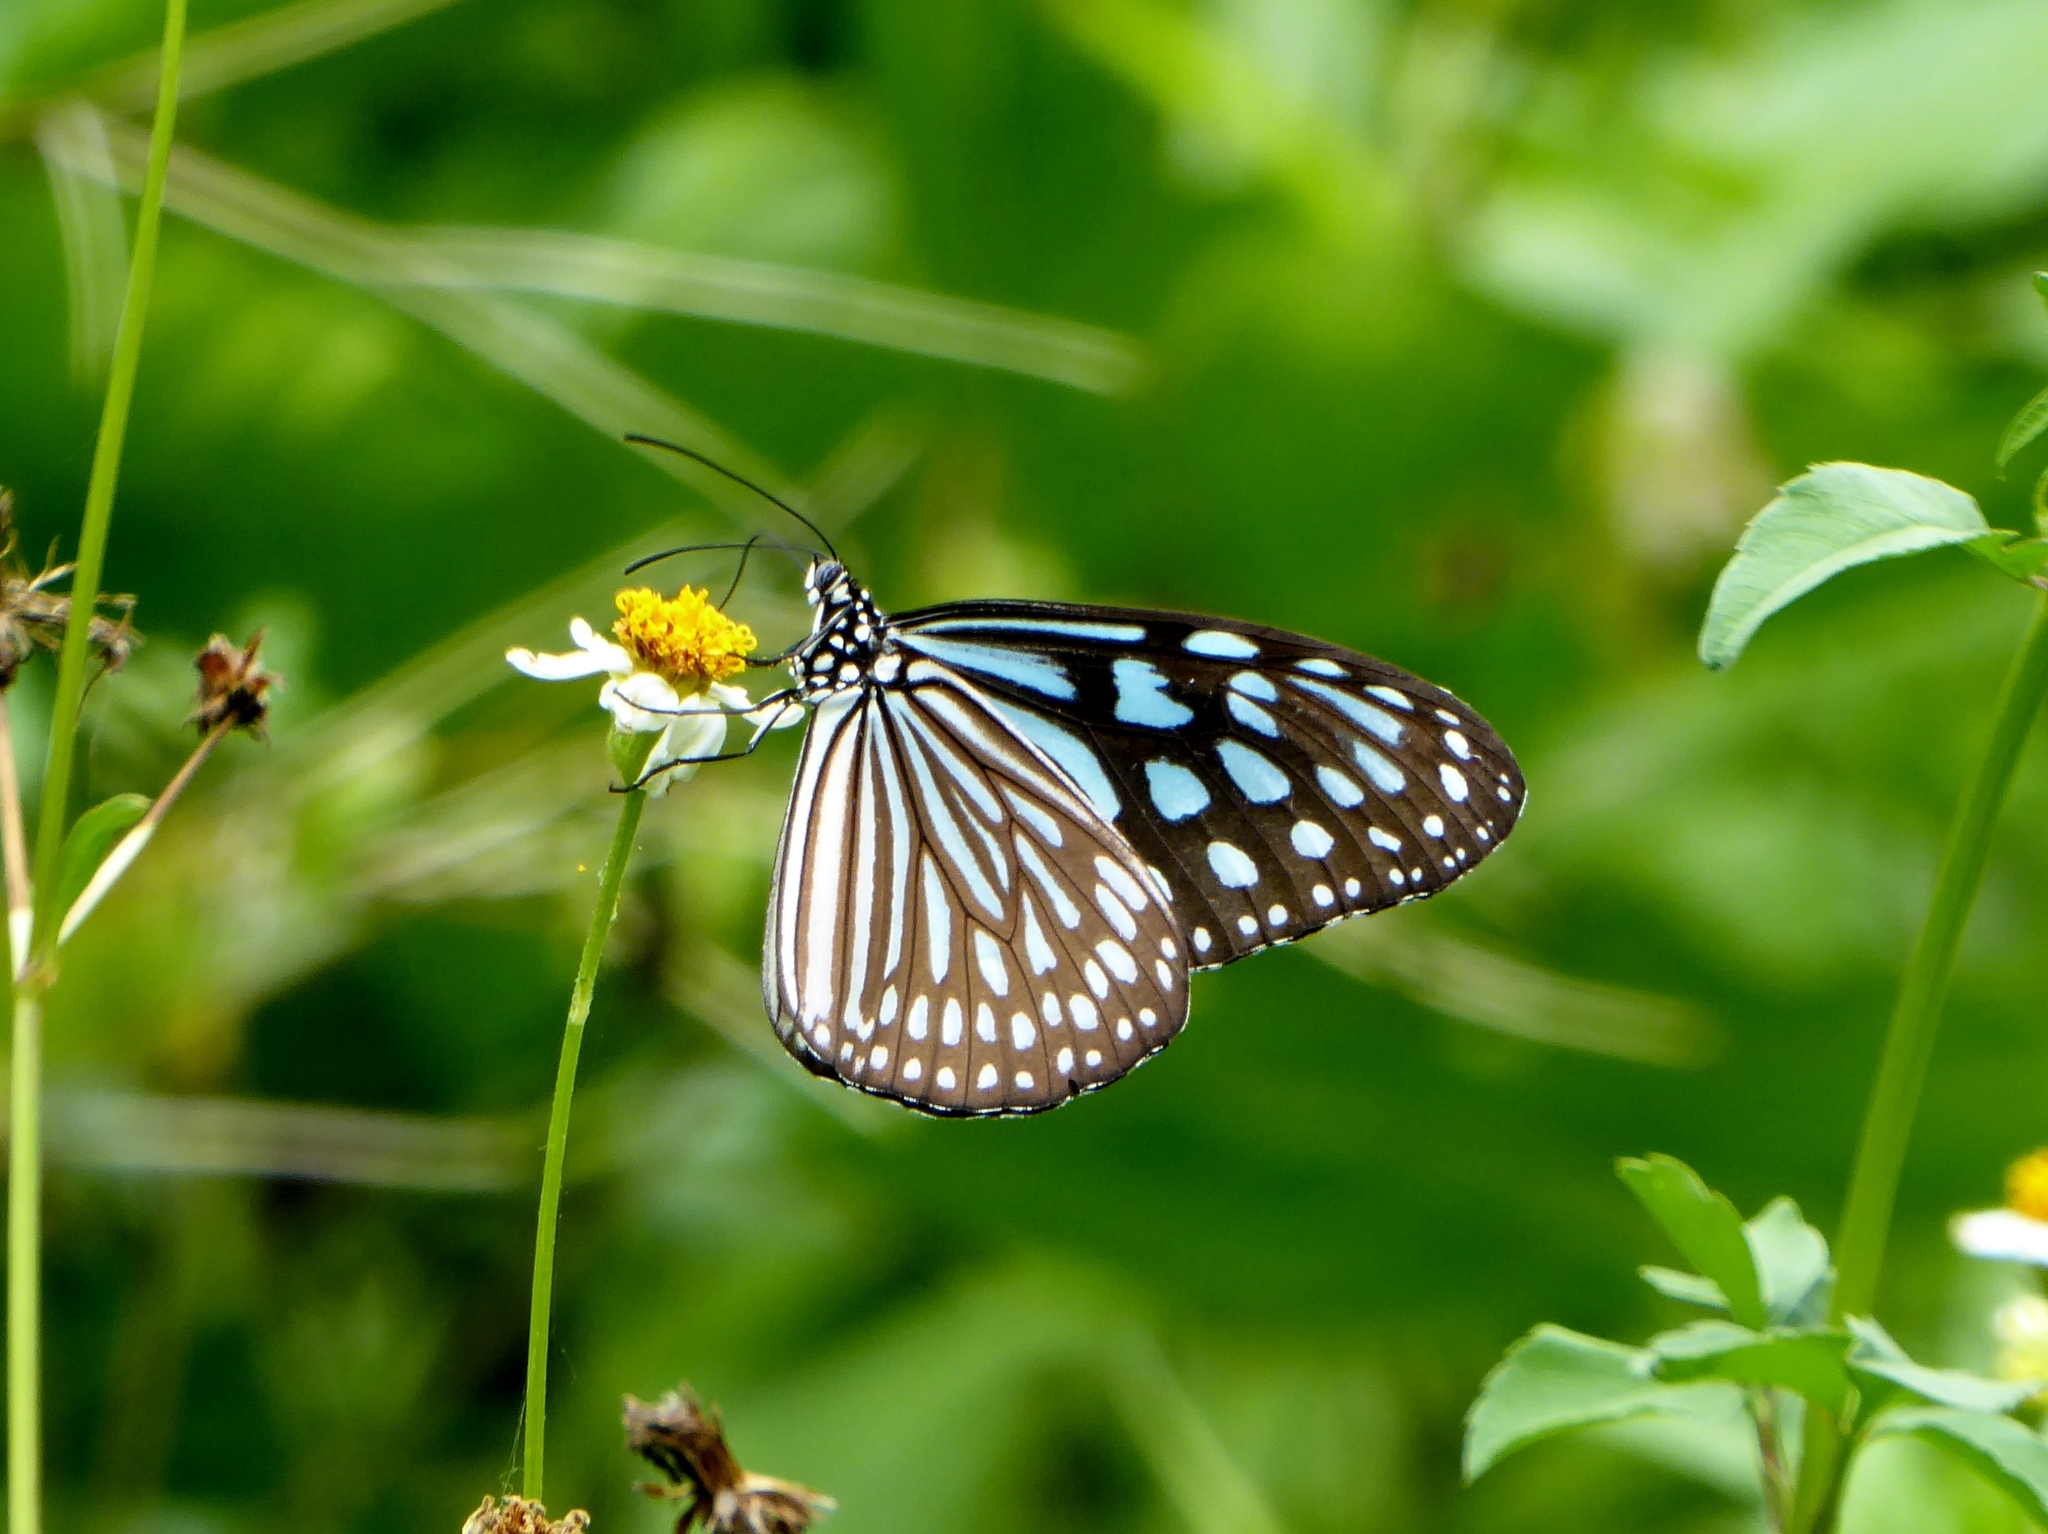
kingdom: Animalia
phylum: Arthropoda
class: Insecta
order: Lepidoptera
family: Nymphalidae
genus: Ideopsis
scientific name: Ideopsis similis
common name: Ceylon blue glassy tiger
